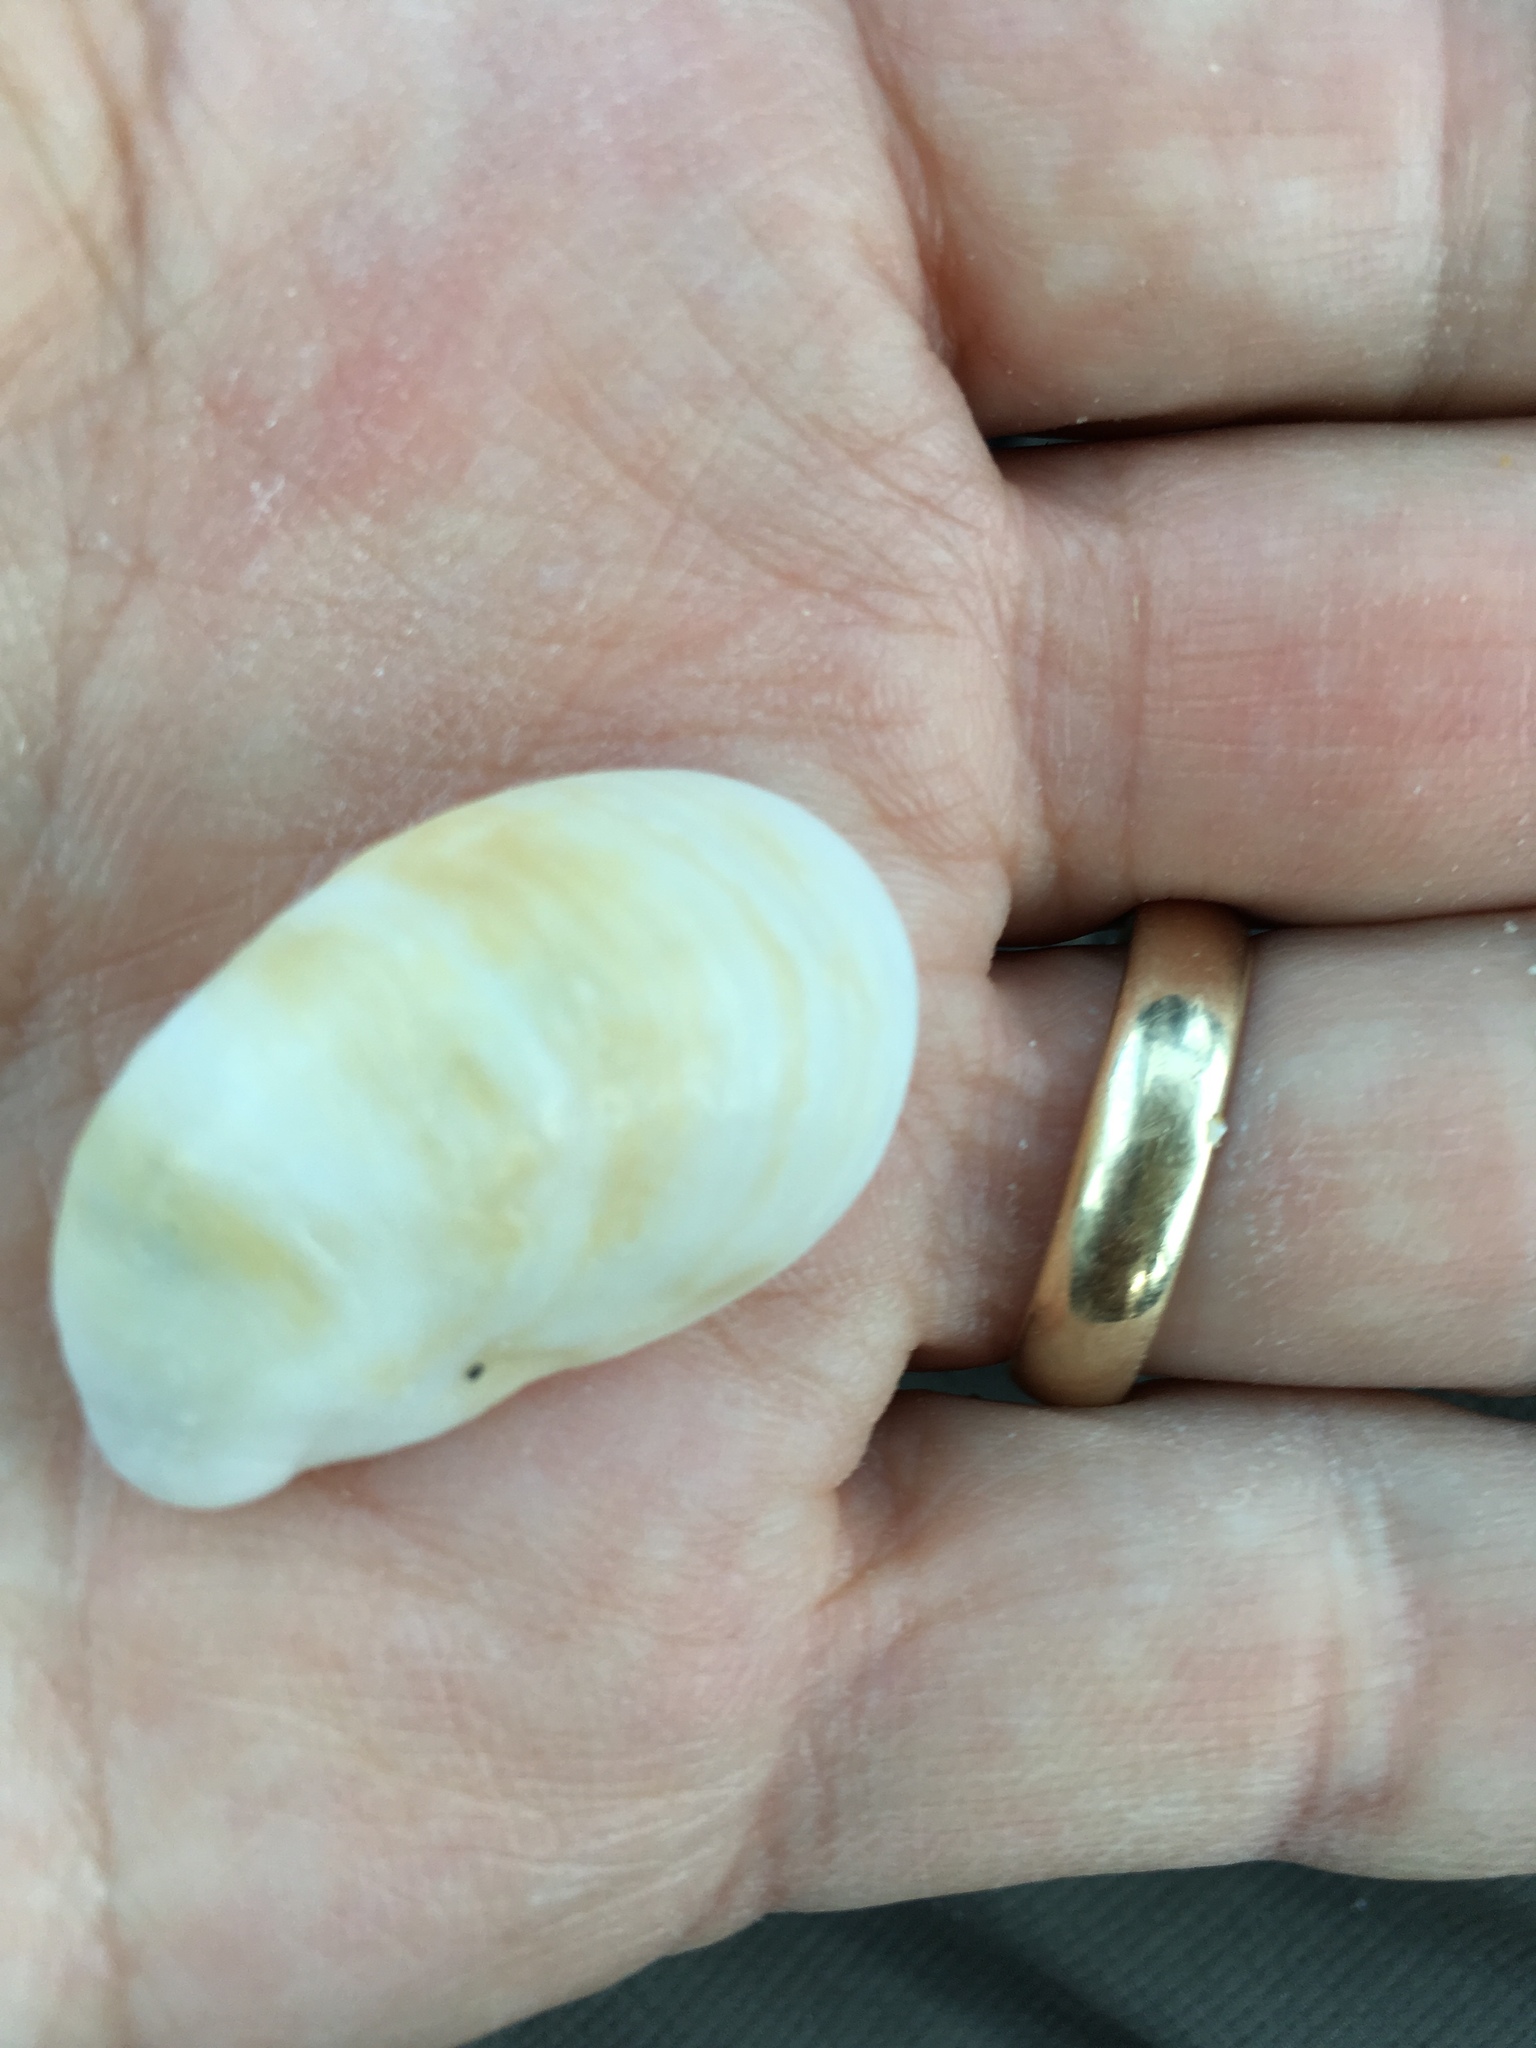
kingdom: Animalia
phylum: Mollusca
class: Gastropoda
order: Littorinimorpha
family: Calyptraeidae
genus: Crepidula
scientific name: Crepidula fornicata
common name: Slipper limpet
